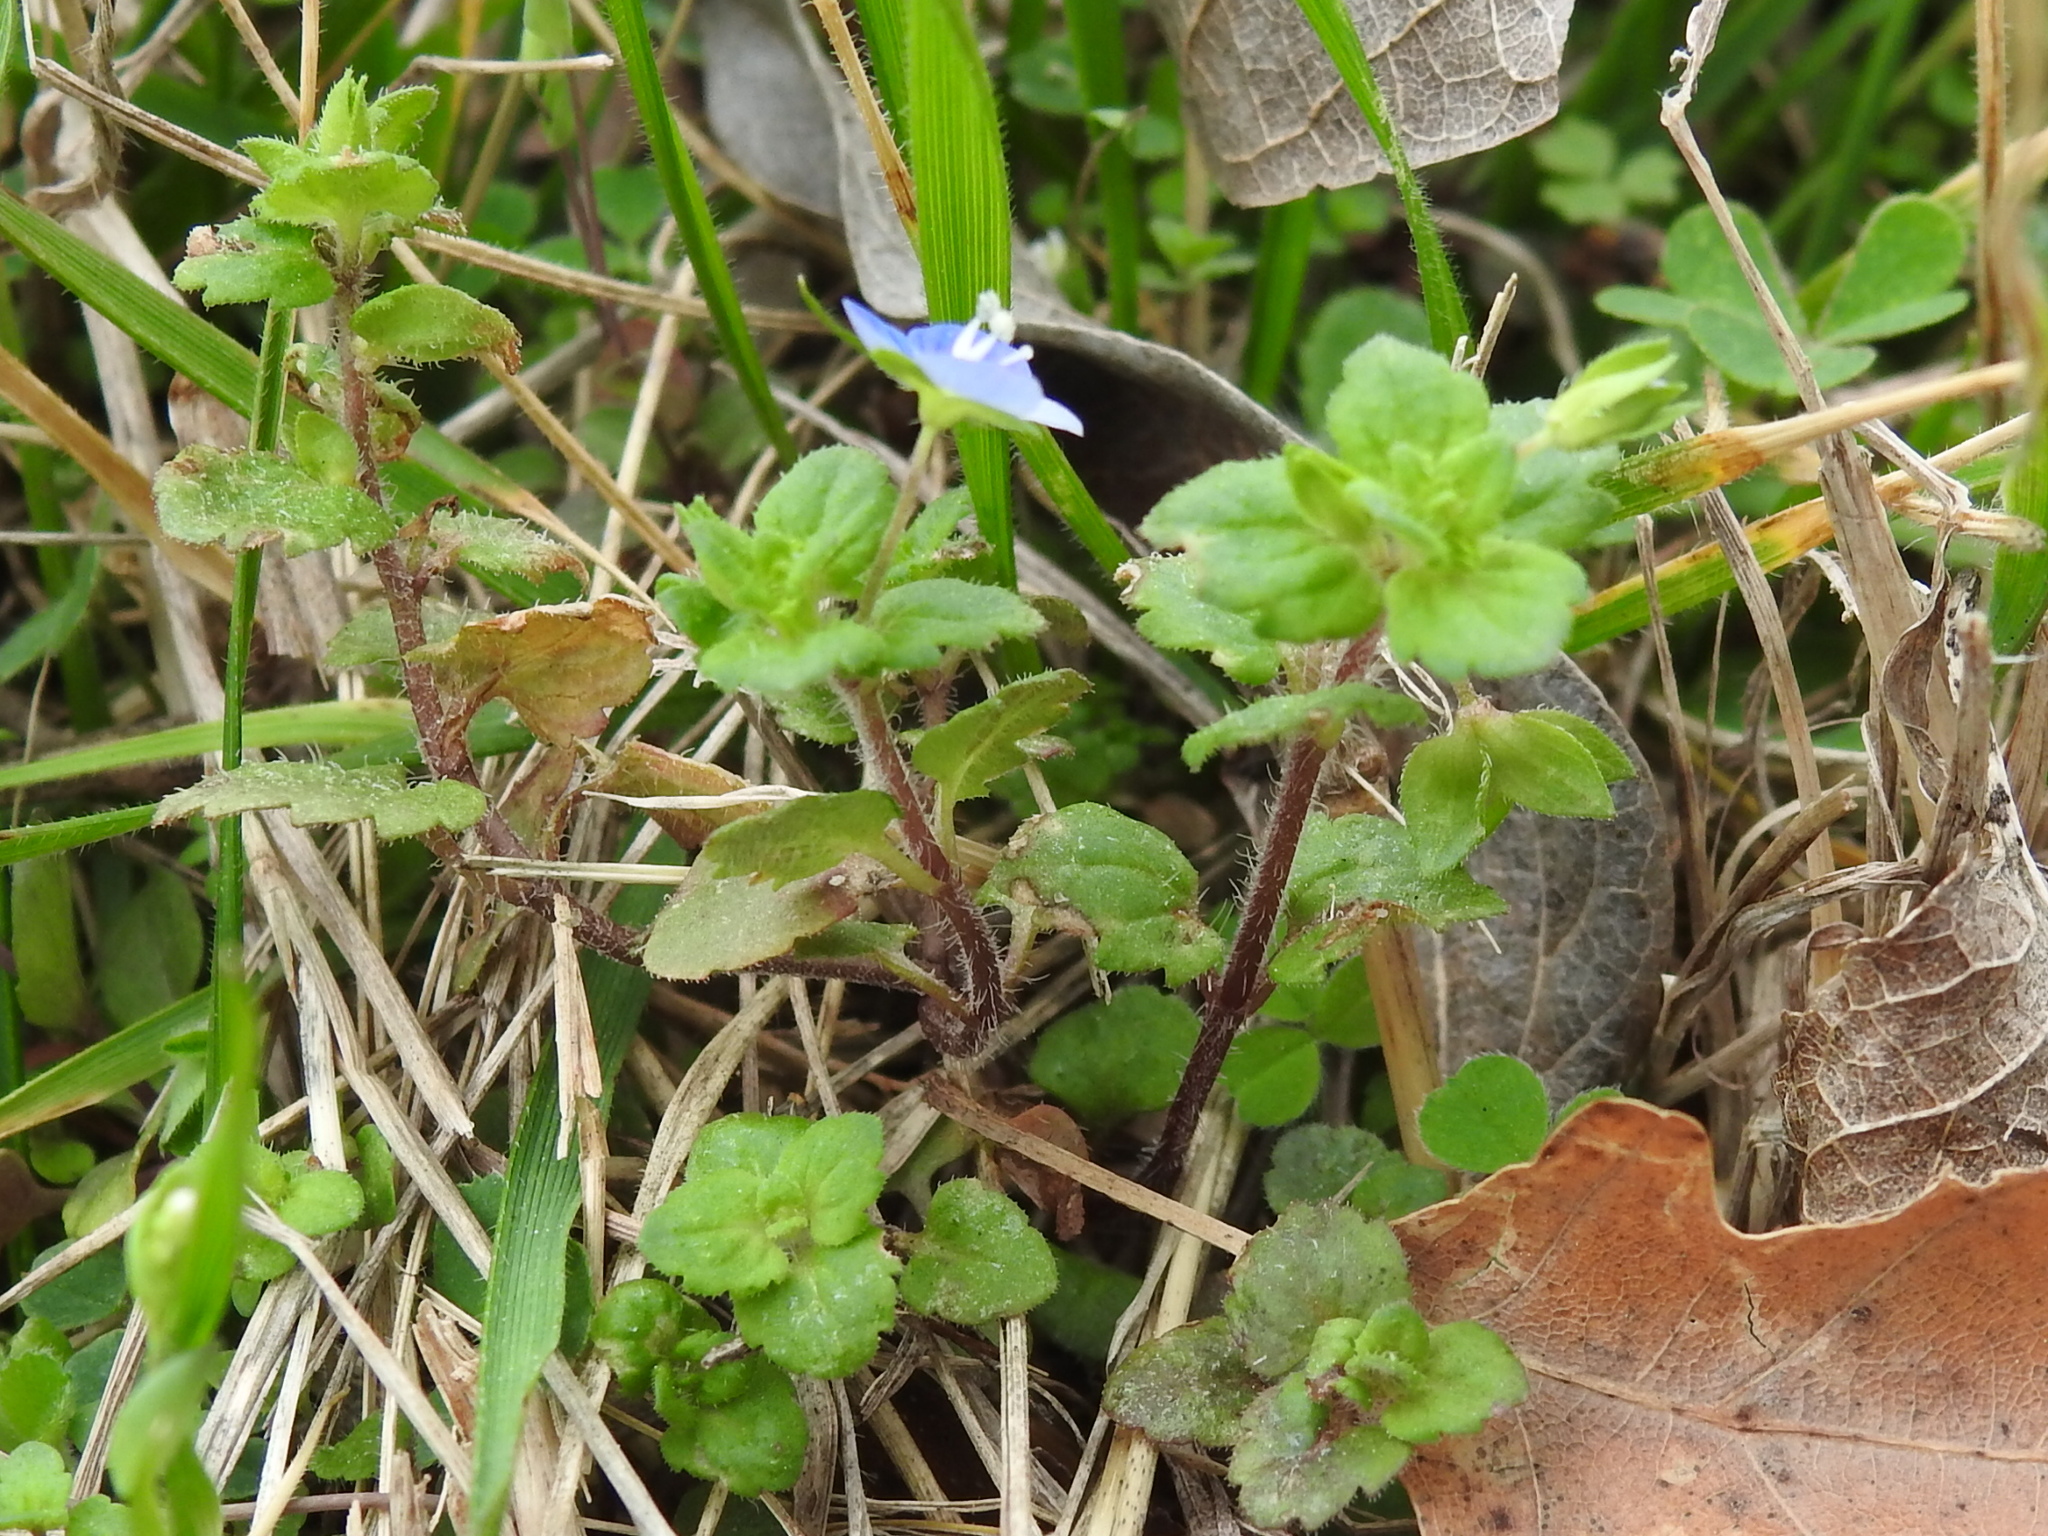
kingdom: Plantae
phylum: Tracheophyta
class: Magnoliopsida
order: Lamiales
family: Plantaginaceae
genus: Veronica
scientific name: Veronica persica
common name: Common field-speedwell
